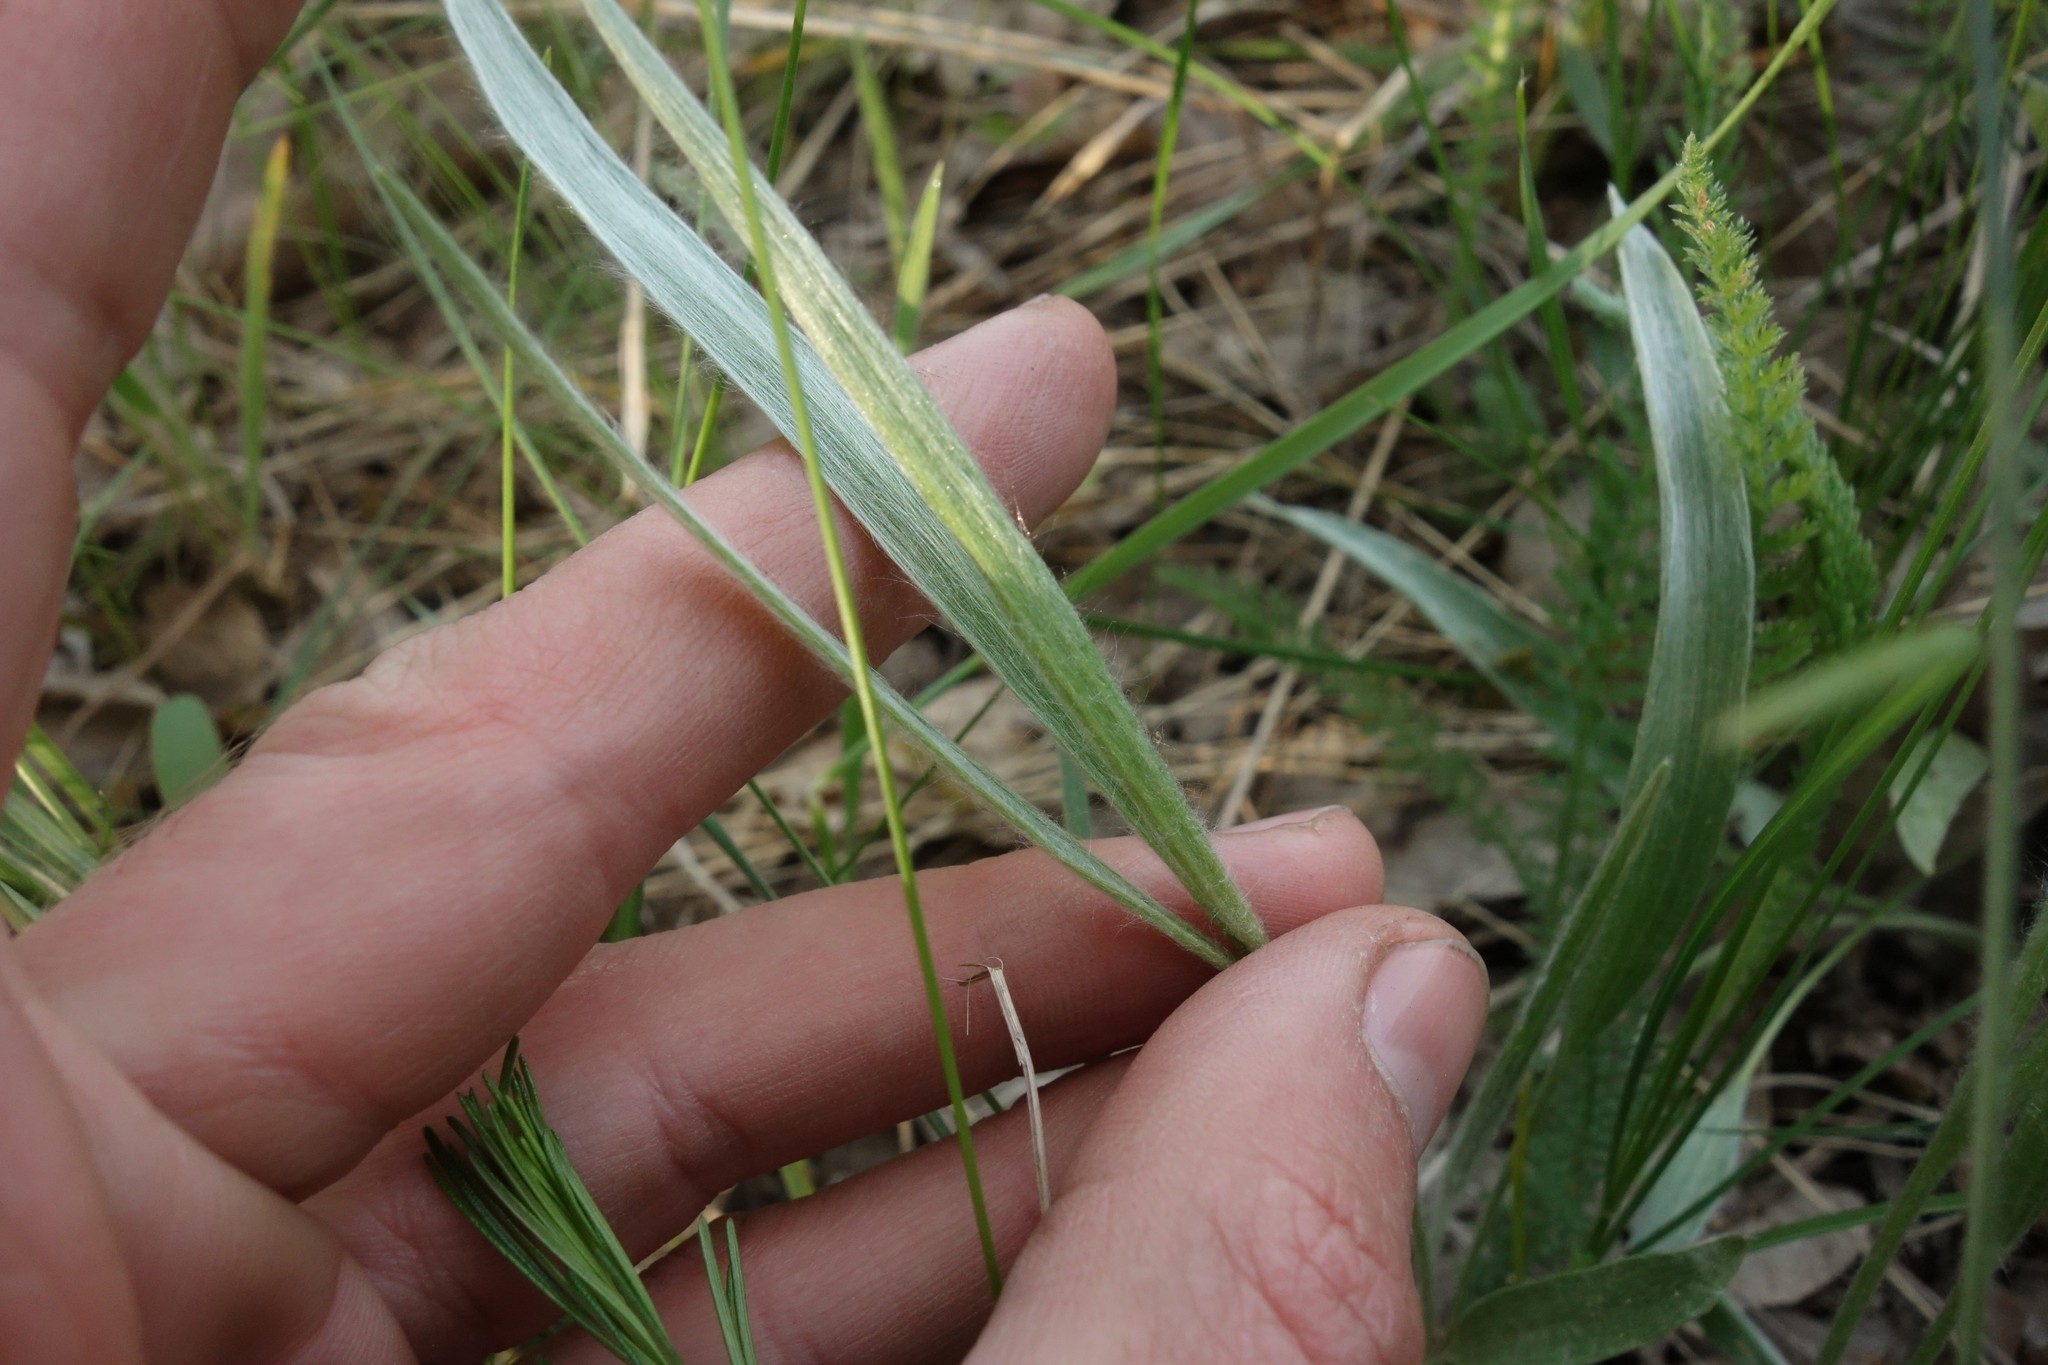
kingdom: Plantae
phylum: Tracheophyta
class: Magnoliopsida
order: Ranunculales
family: Ranunculaceae
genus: Ranunculus
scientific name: Ranunculus illyricus
